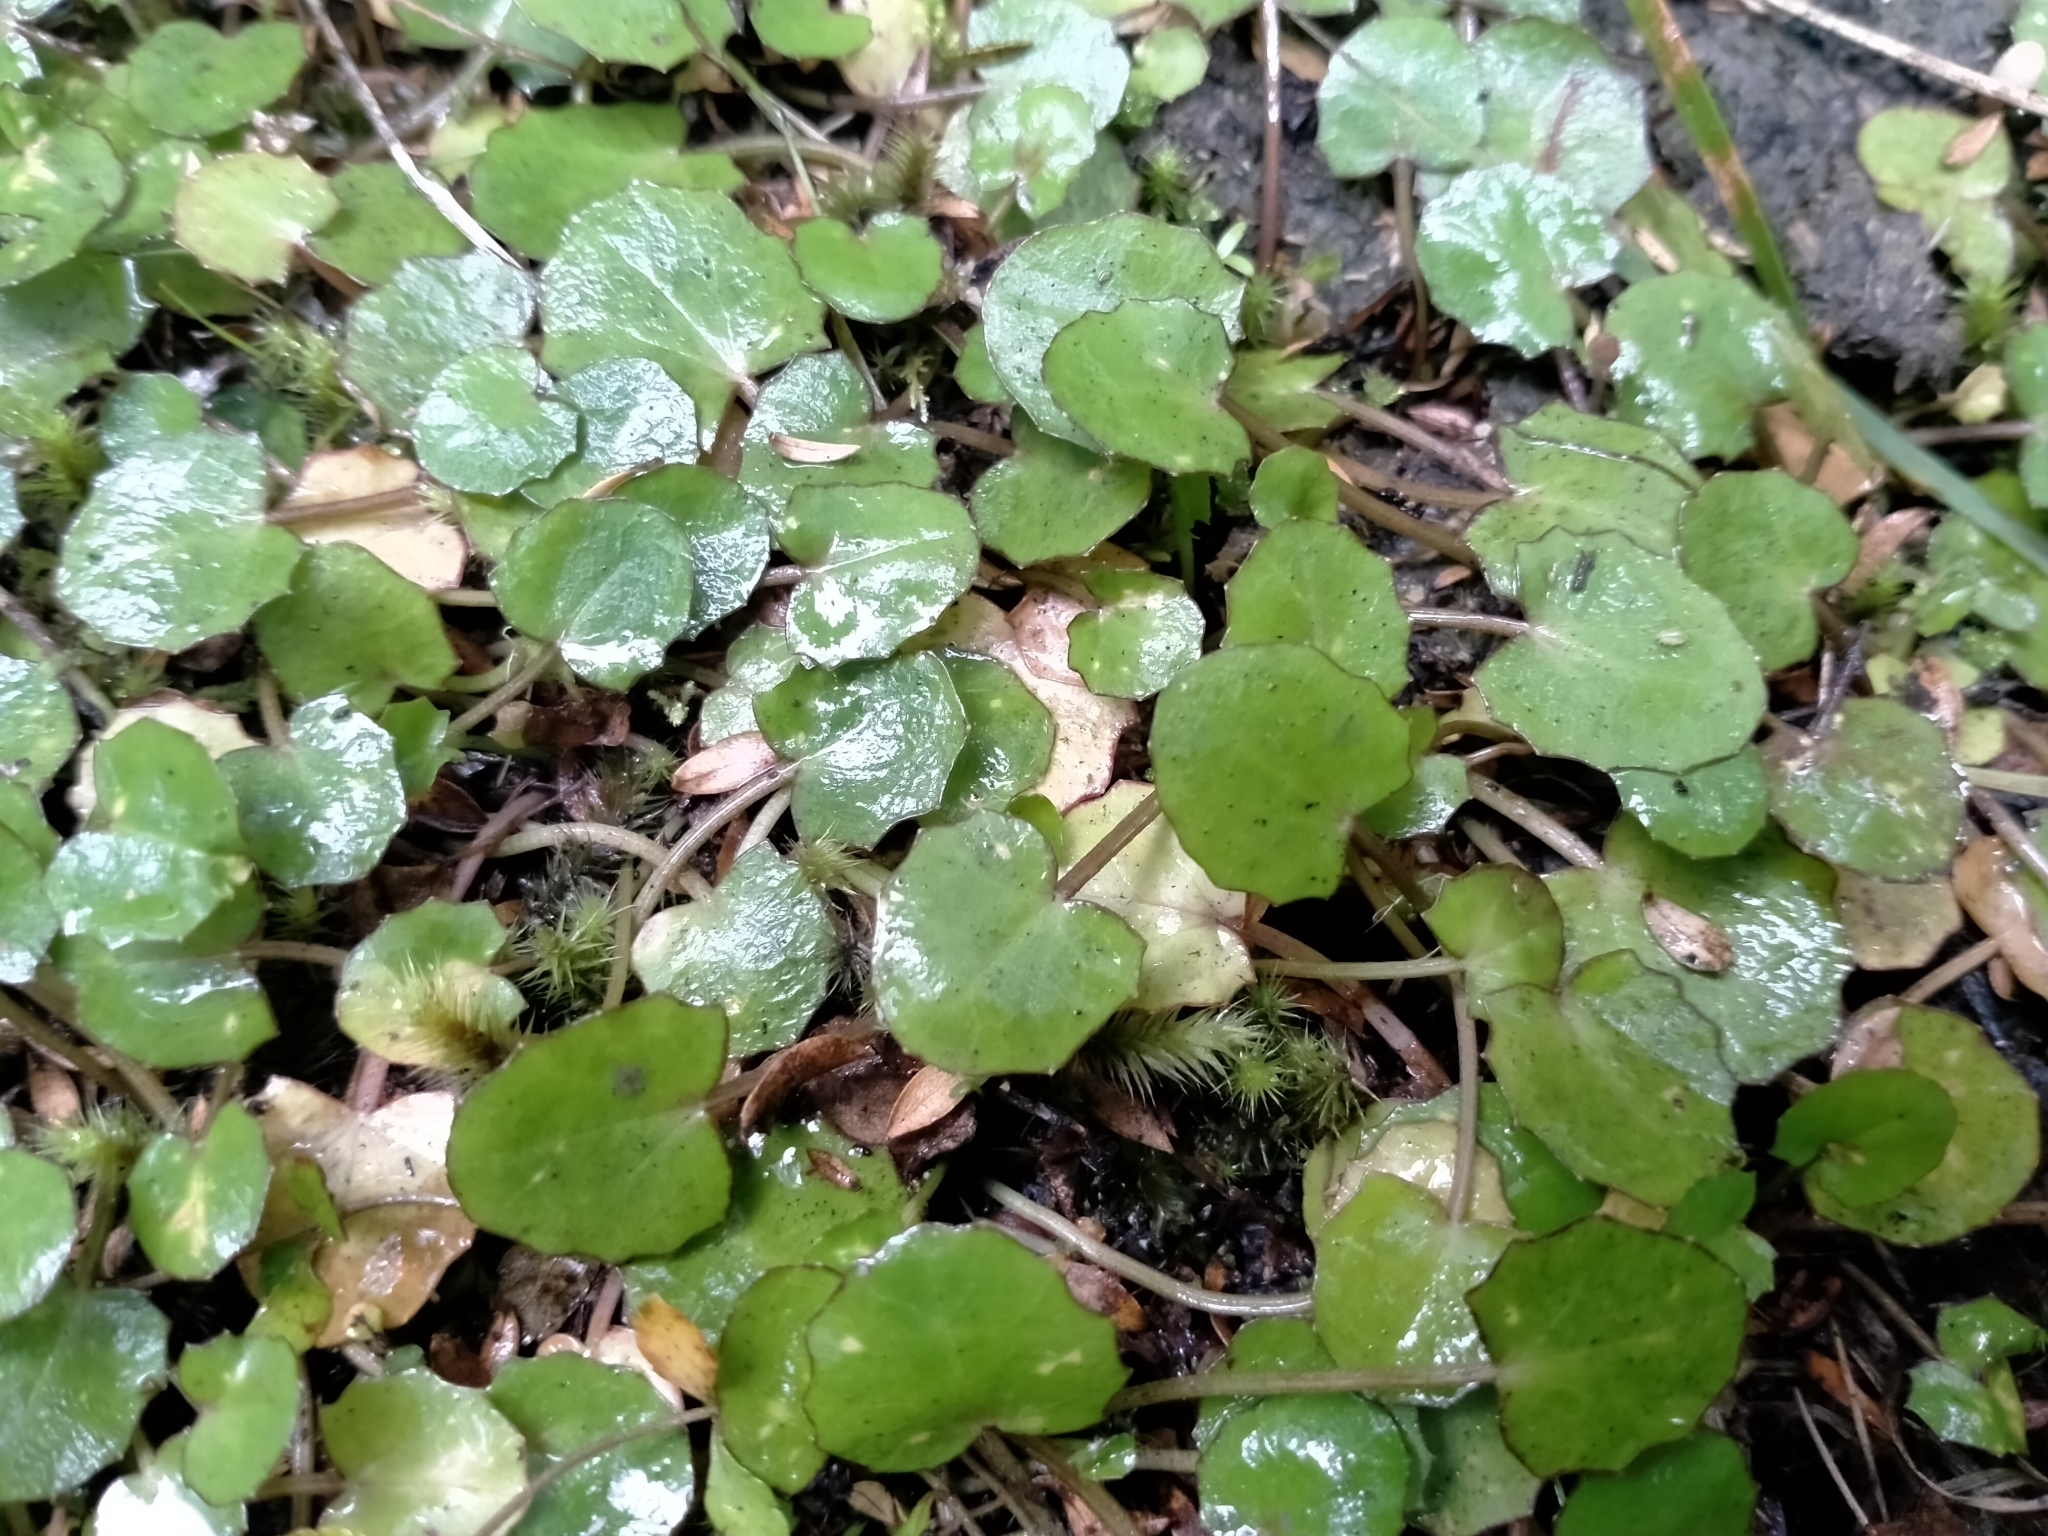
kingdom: Plantae
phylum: Tracheophyta
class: Magnoliopsida
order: Apiales
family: Apiaceae
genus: Centella
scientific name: Centella uniflora
